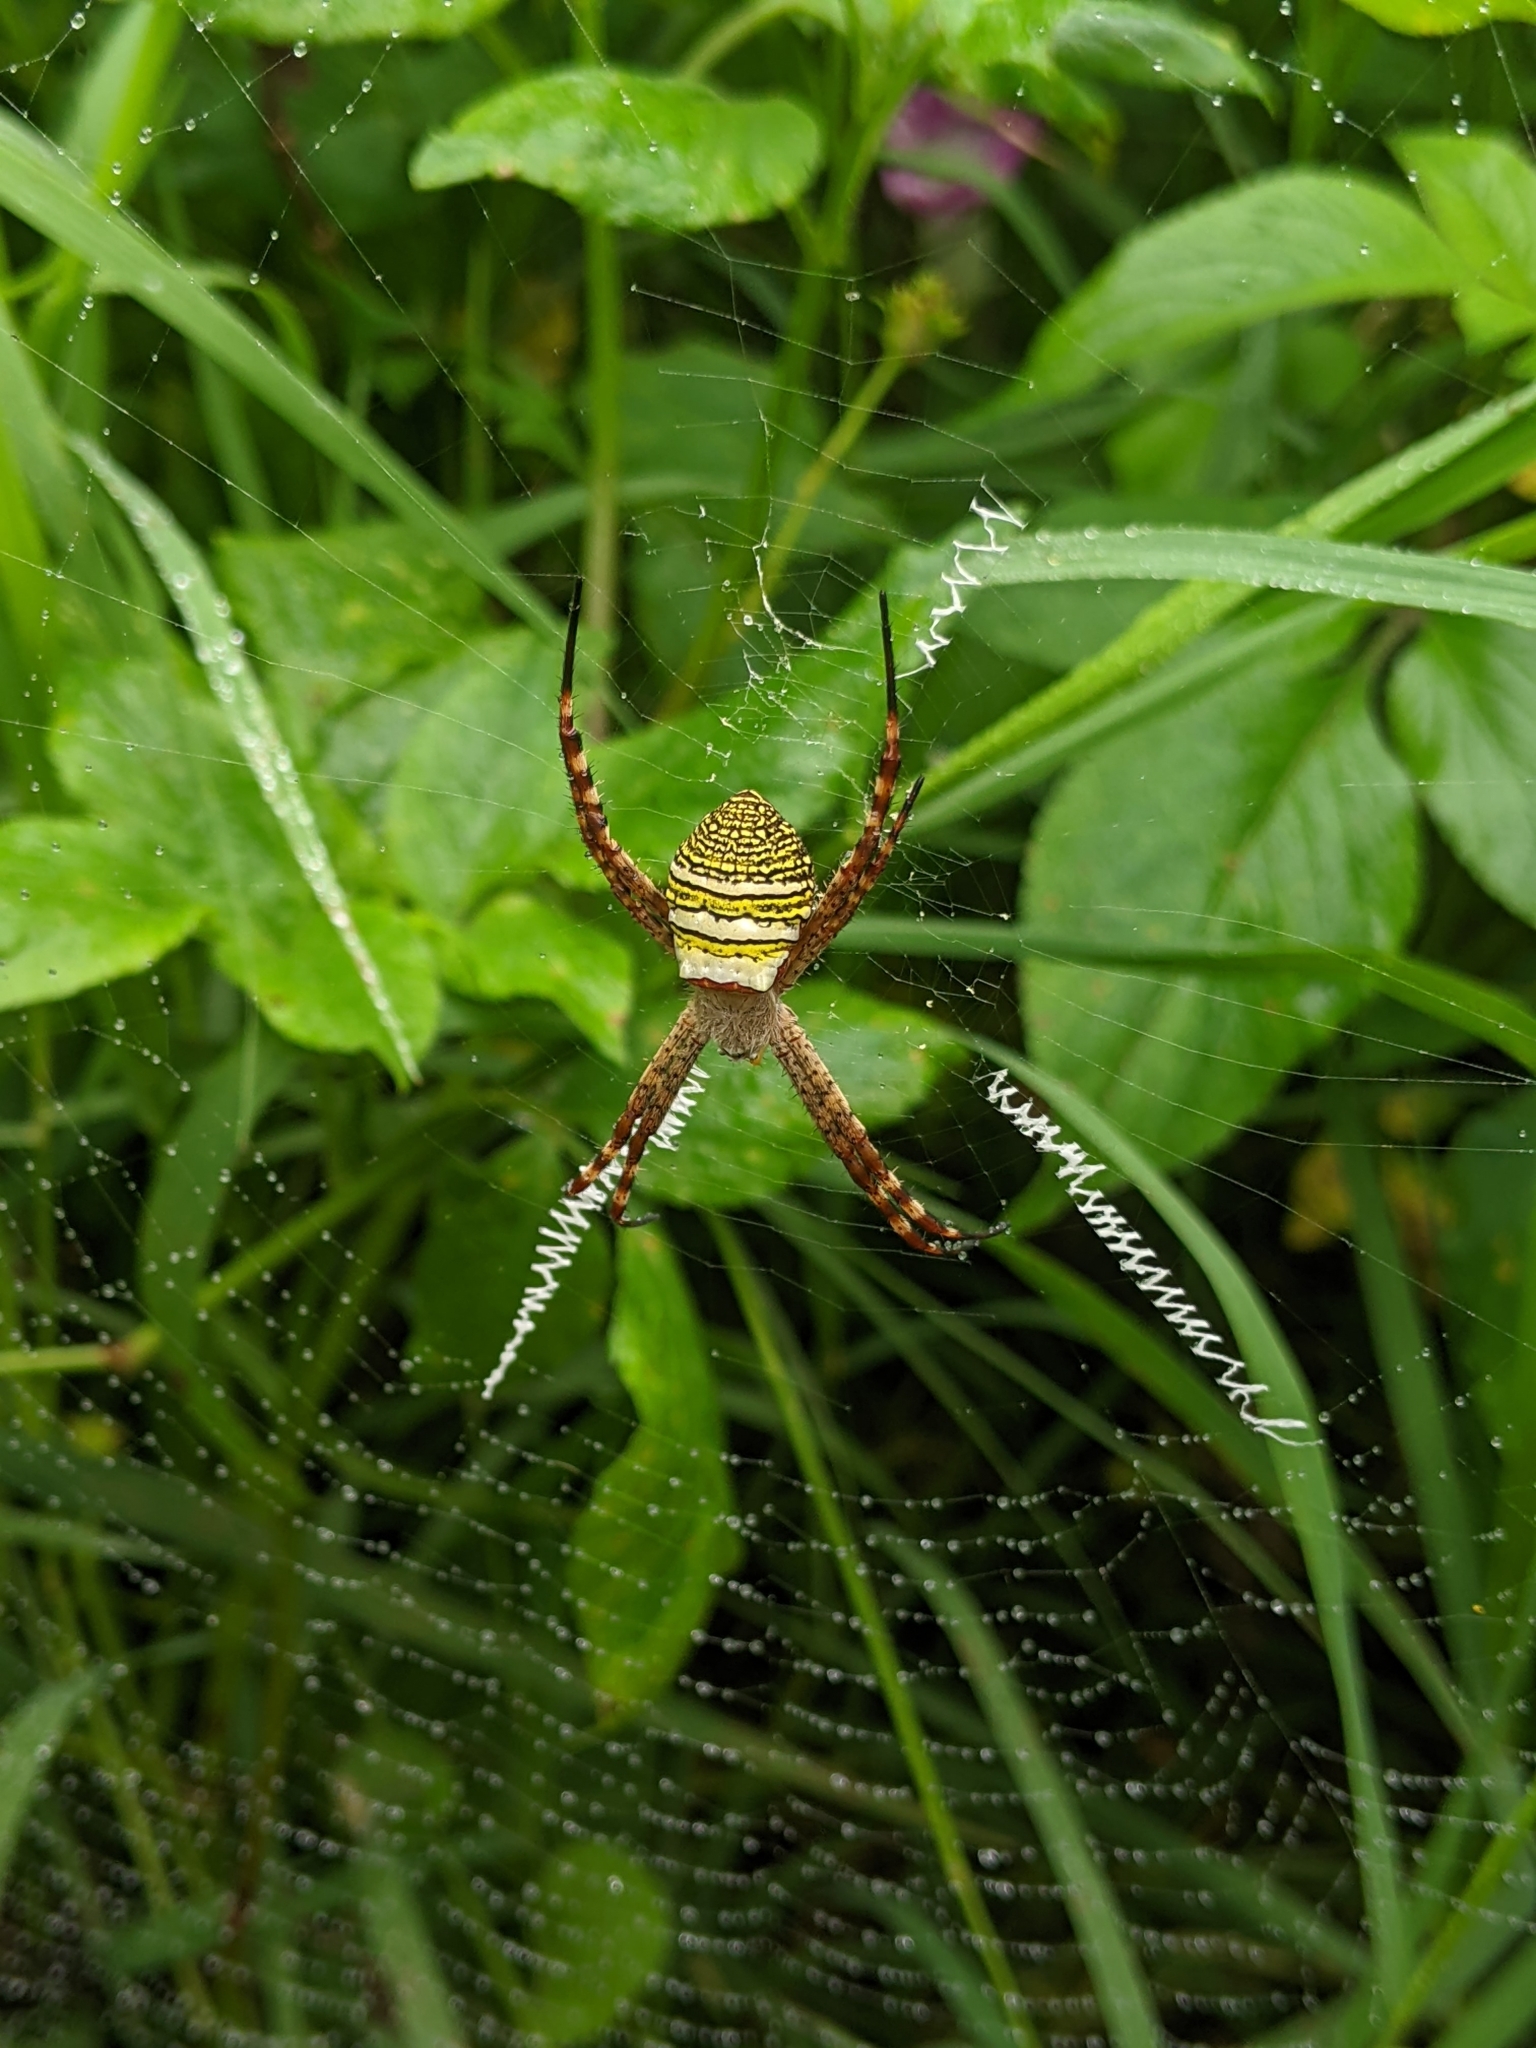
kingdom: Animalia
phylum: Arthropoda
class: Arachnida
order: Araneae
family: Araneidae
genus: Argiope
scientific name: Argiope aemula
